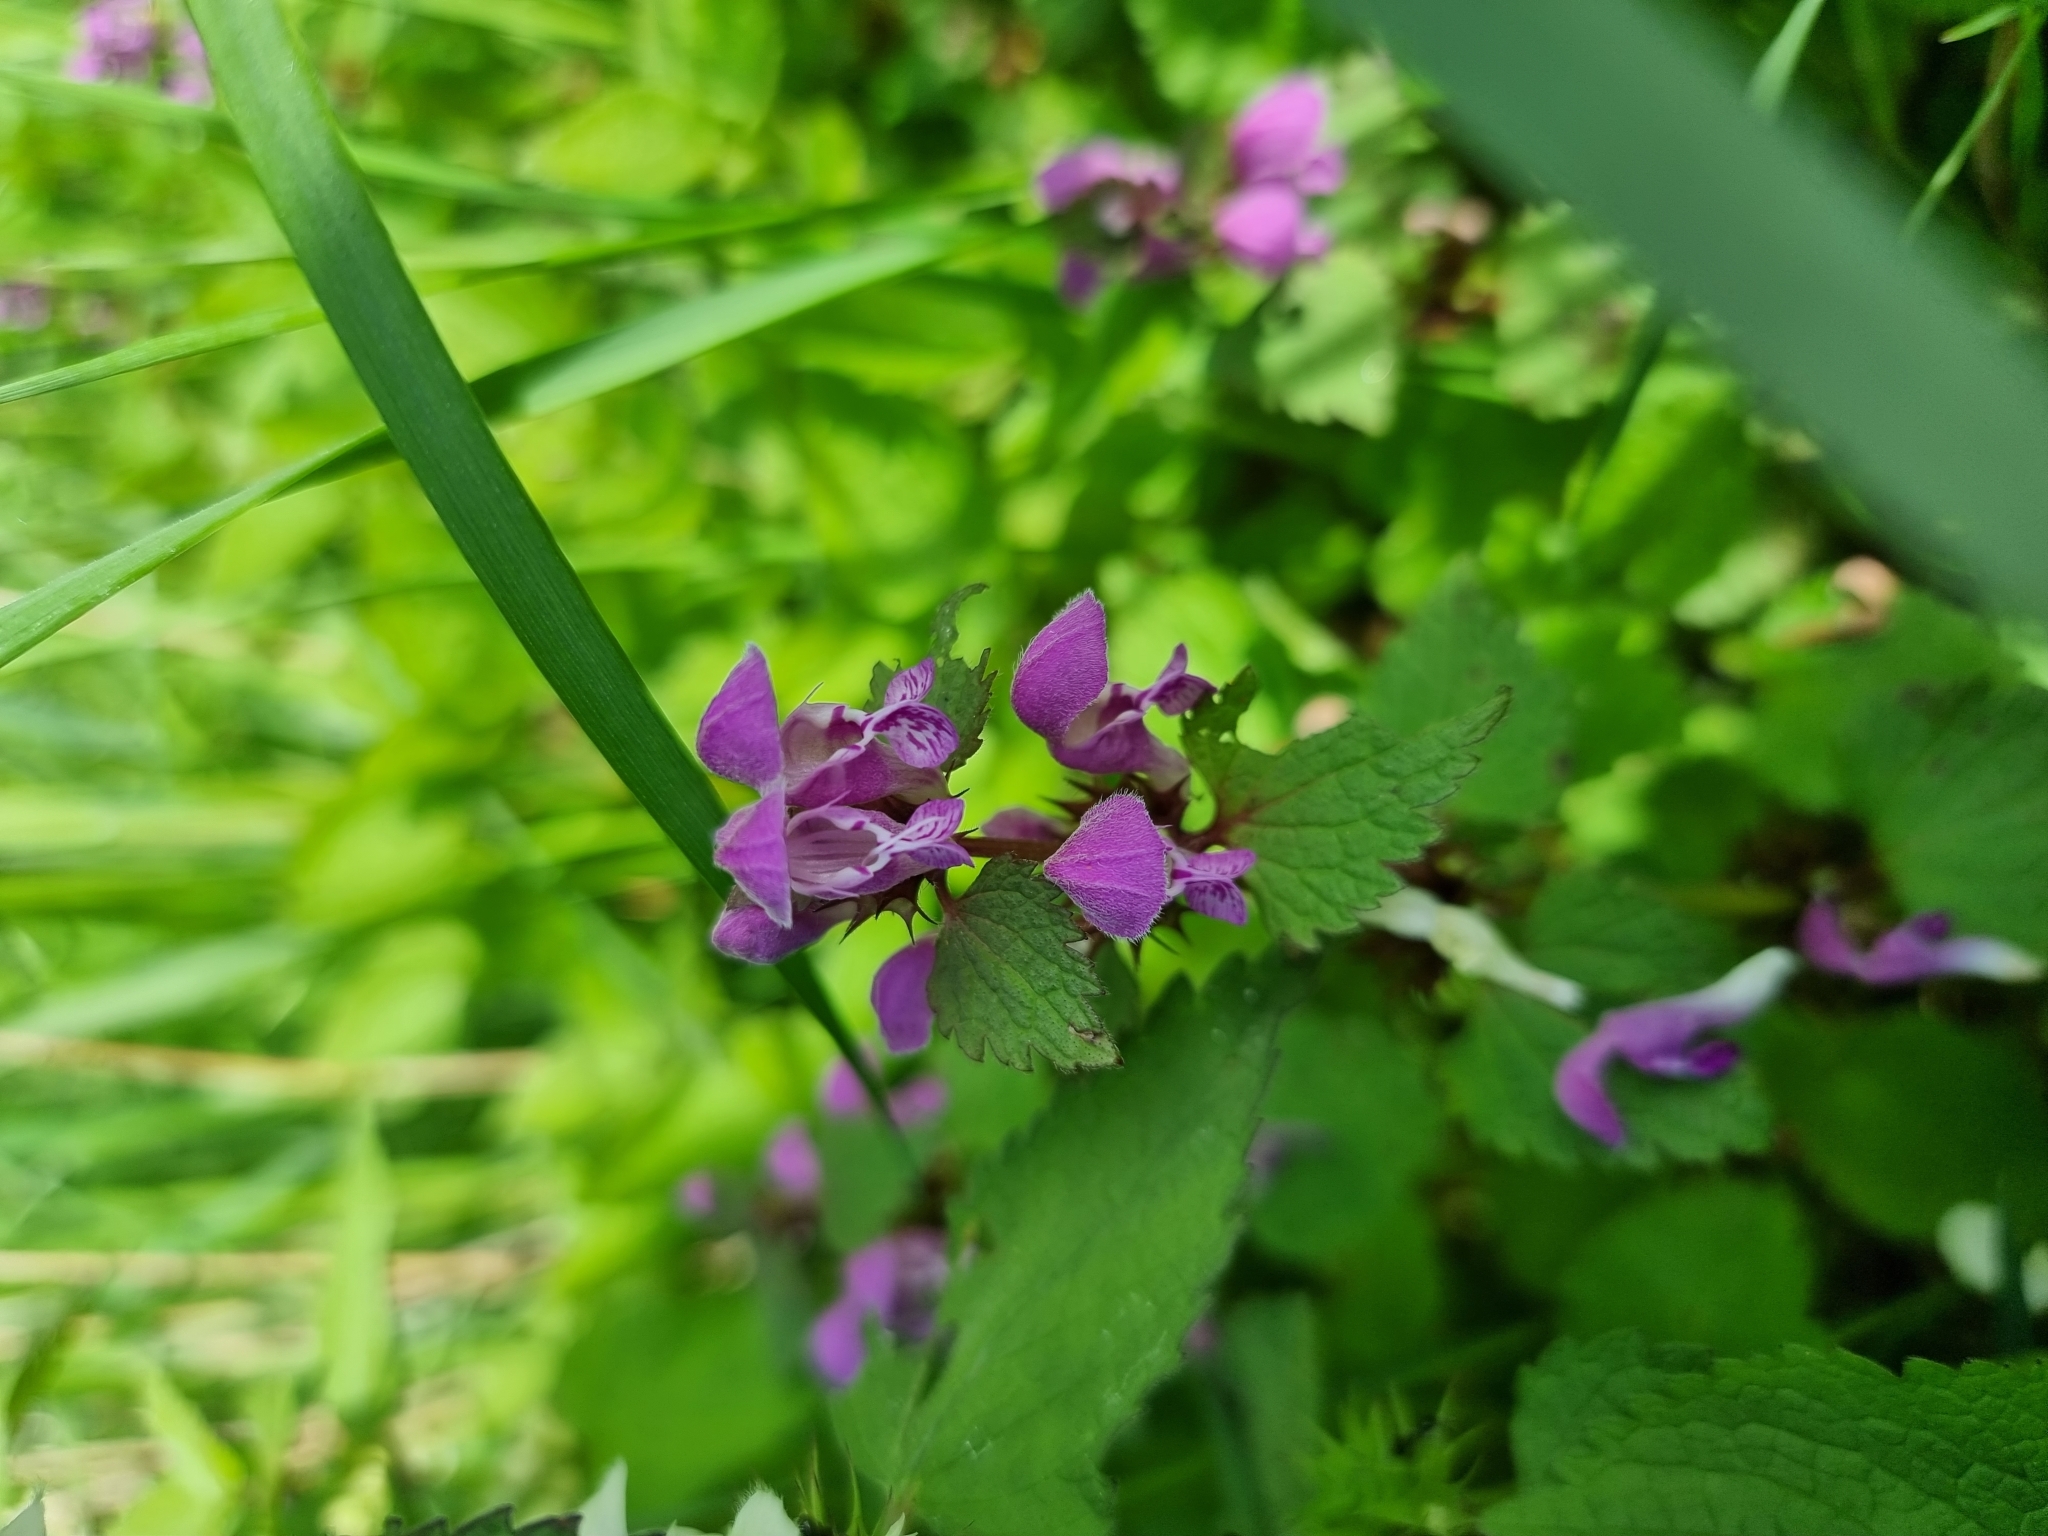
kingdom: Plantae
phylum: Tracheophyta
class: Magnoliopsida
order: Lamiales
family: Lamiaceae
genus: Lamium
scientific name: Lamium maculatum
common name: Spotted dead-nettle
